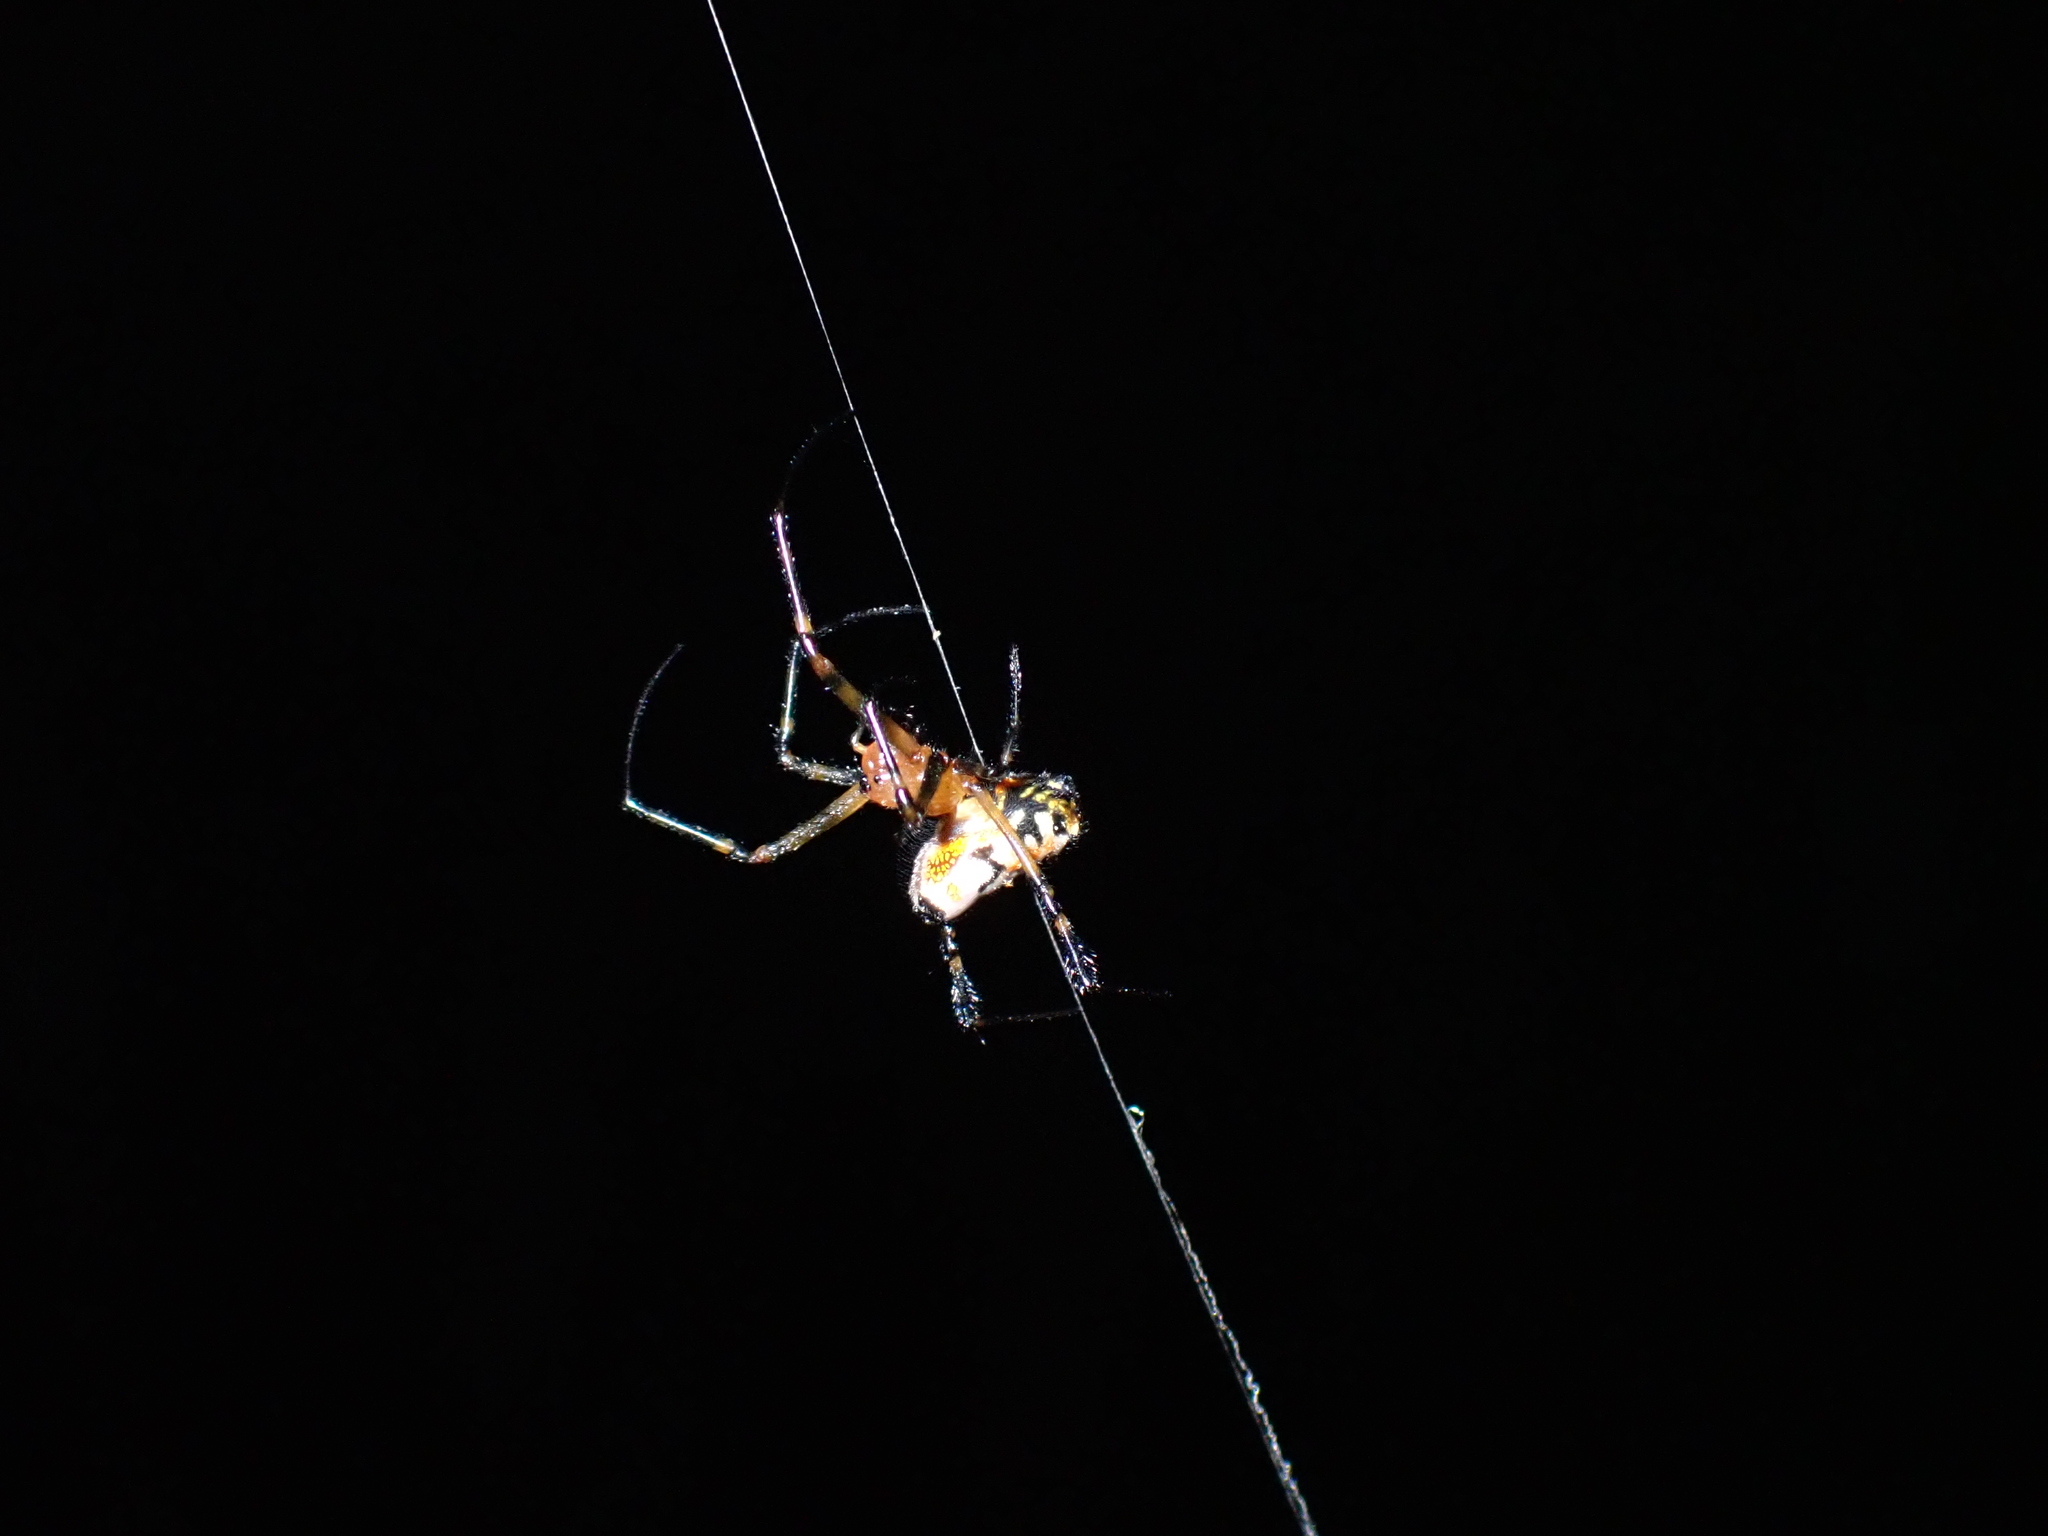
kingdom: Animalia
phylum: Arthropoda
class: Arachnida
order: Araneae
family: Tetragnathidae
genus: Leucauge
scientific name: Leucauge fastigata
